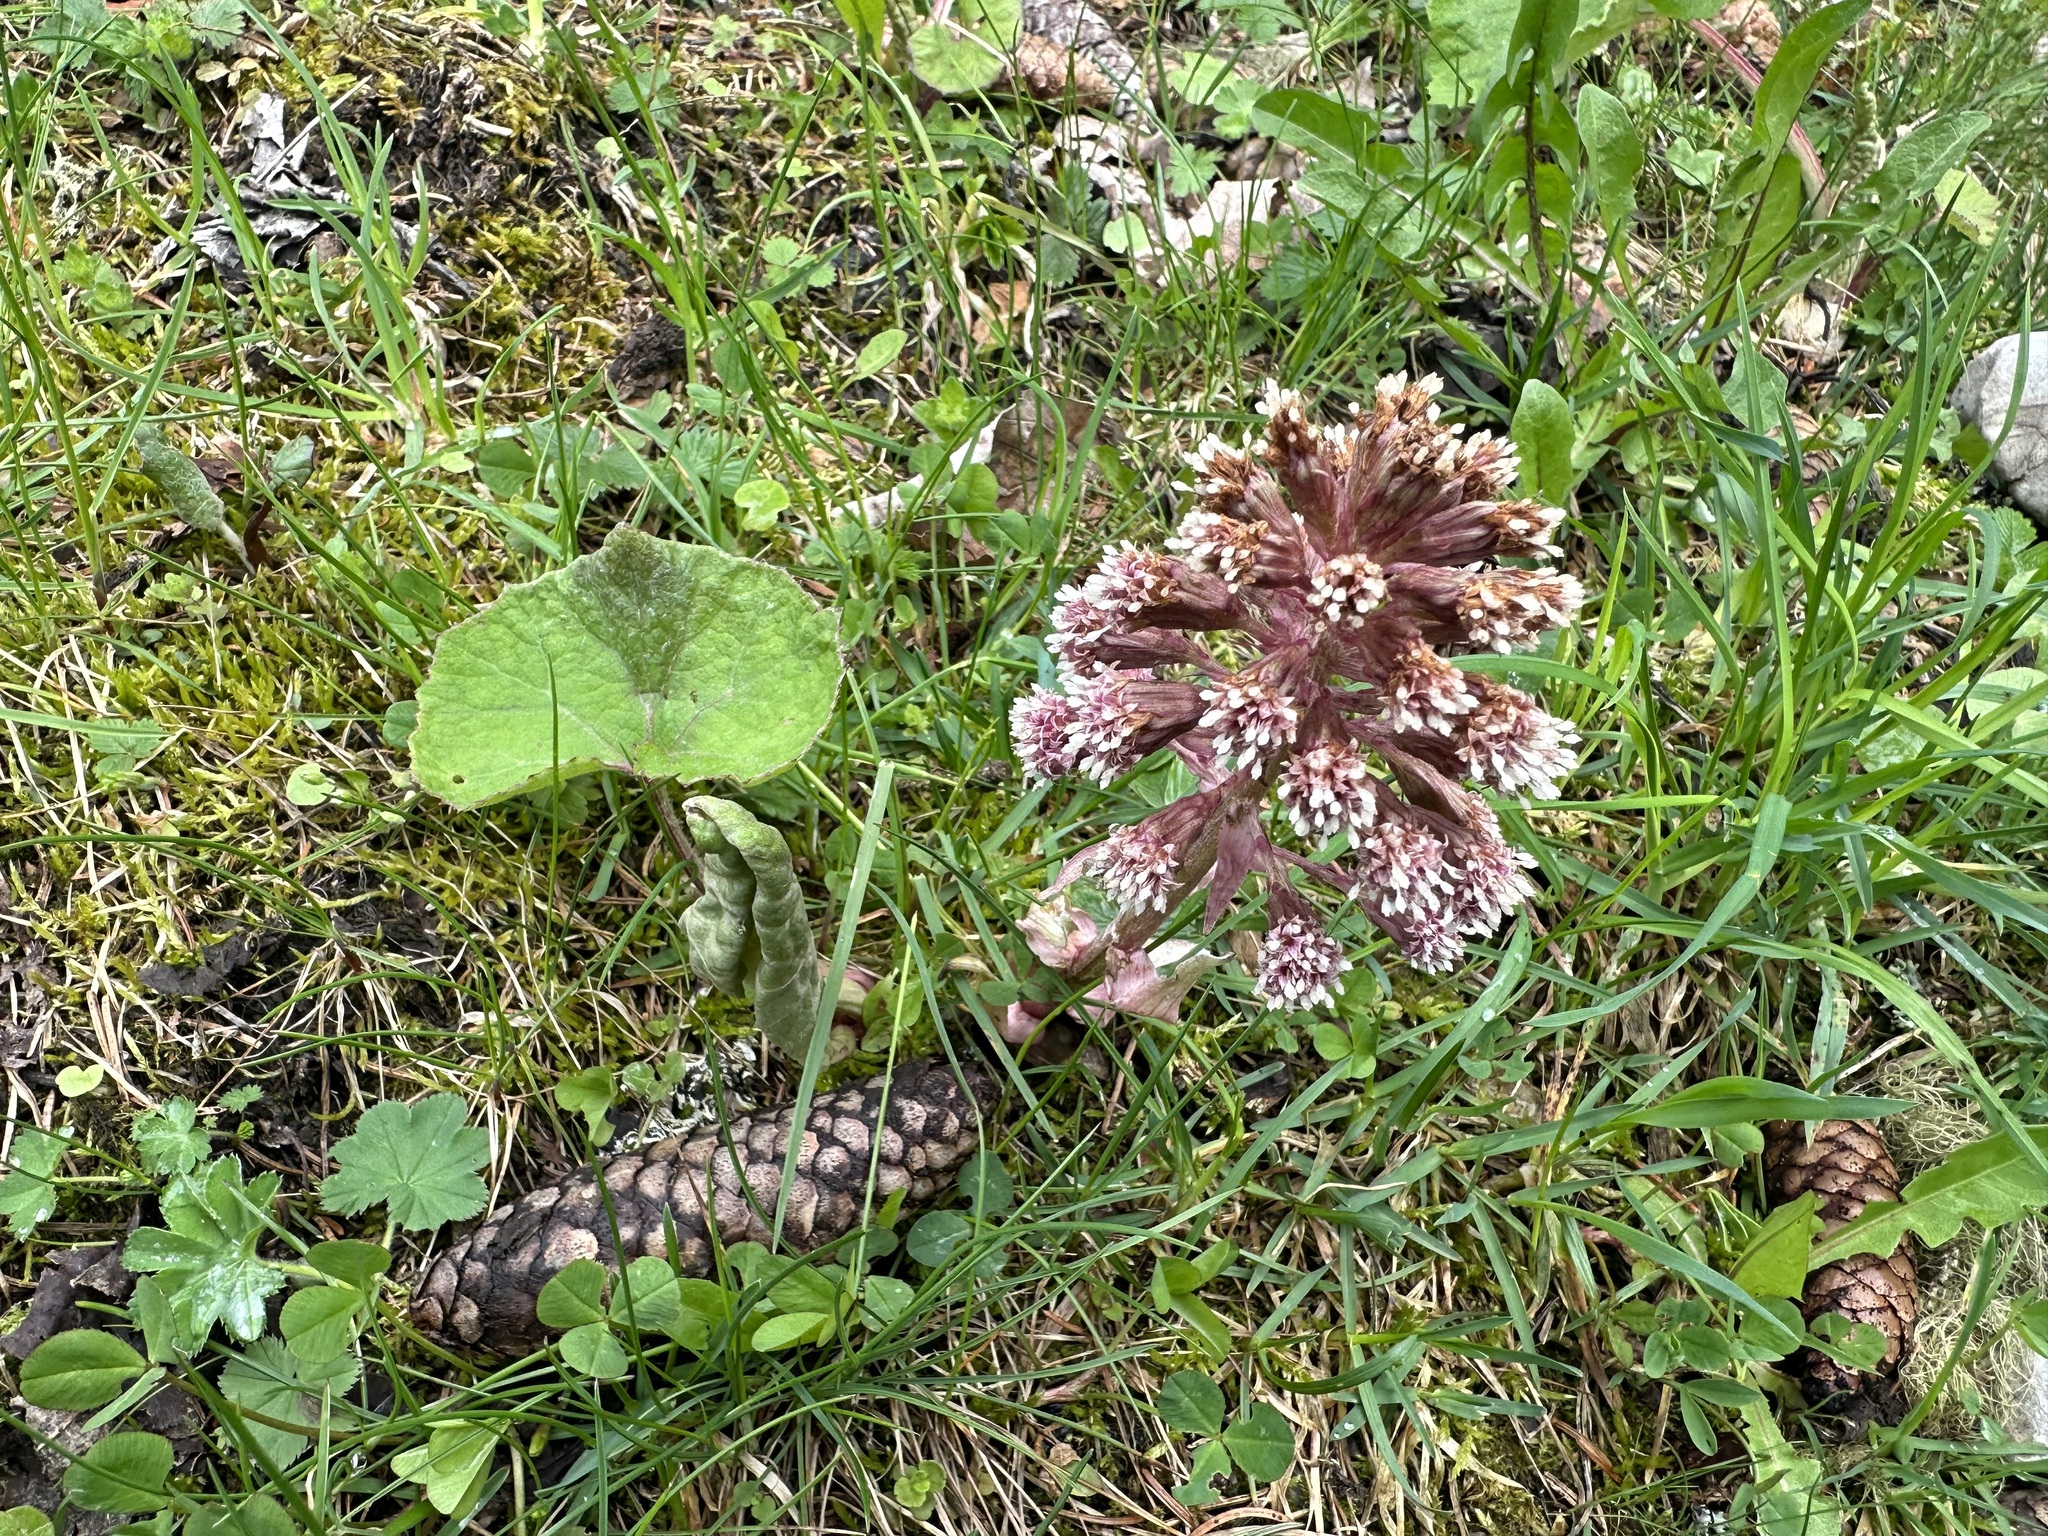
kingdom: Plantae
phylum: Tracheophyta
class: Magnoliopsida
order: Asterales
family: Asteraceae
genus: Petasites
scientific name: Petasites hybridus
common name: Butterbur
